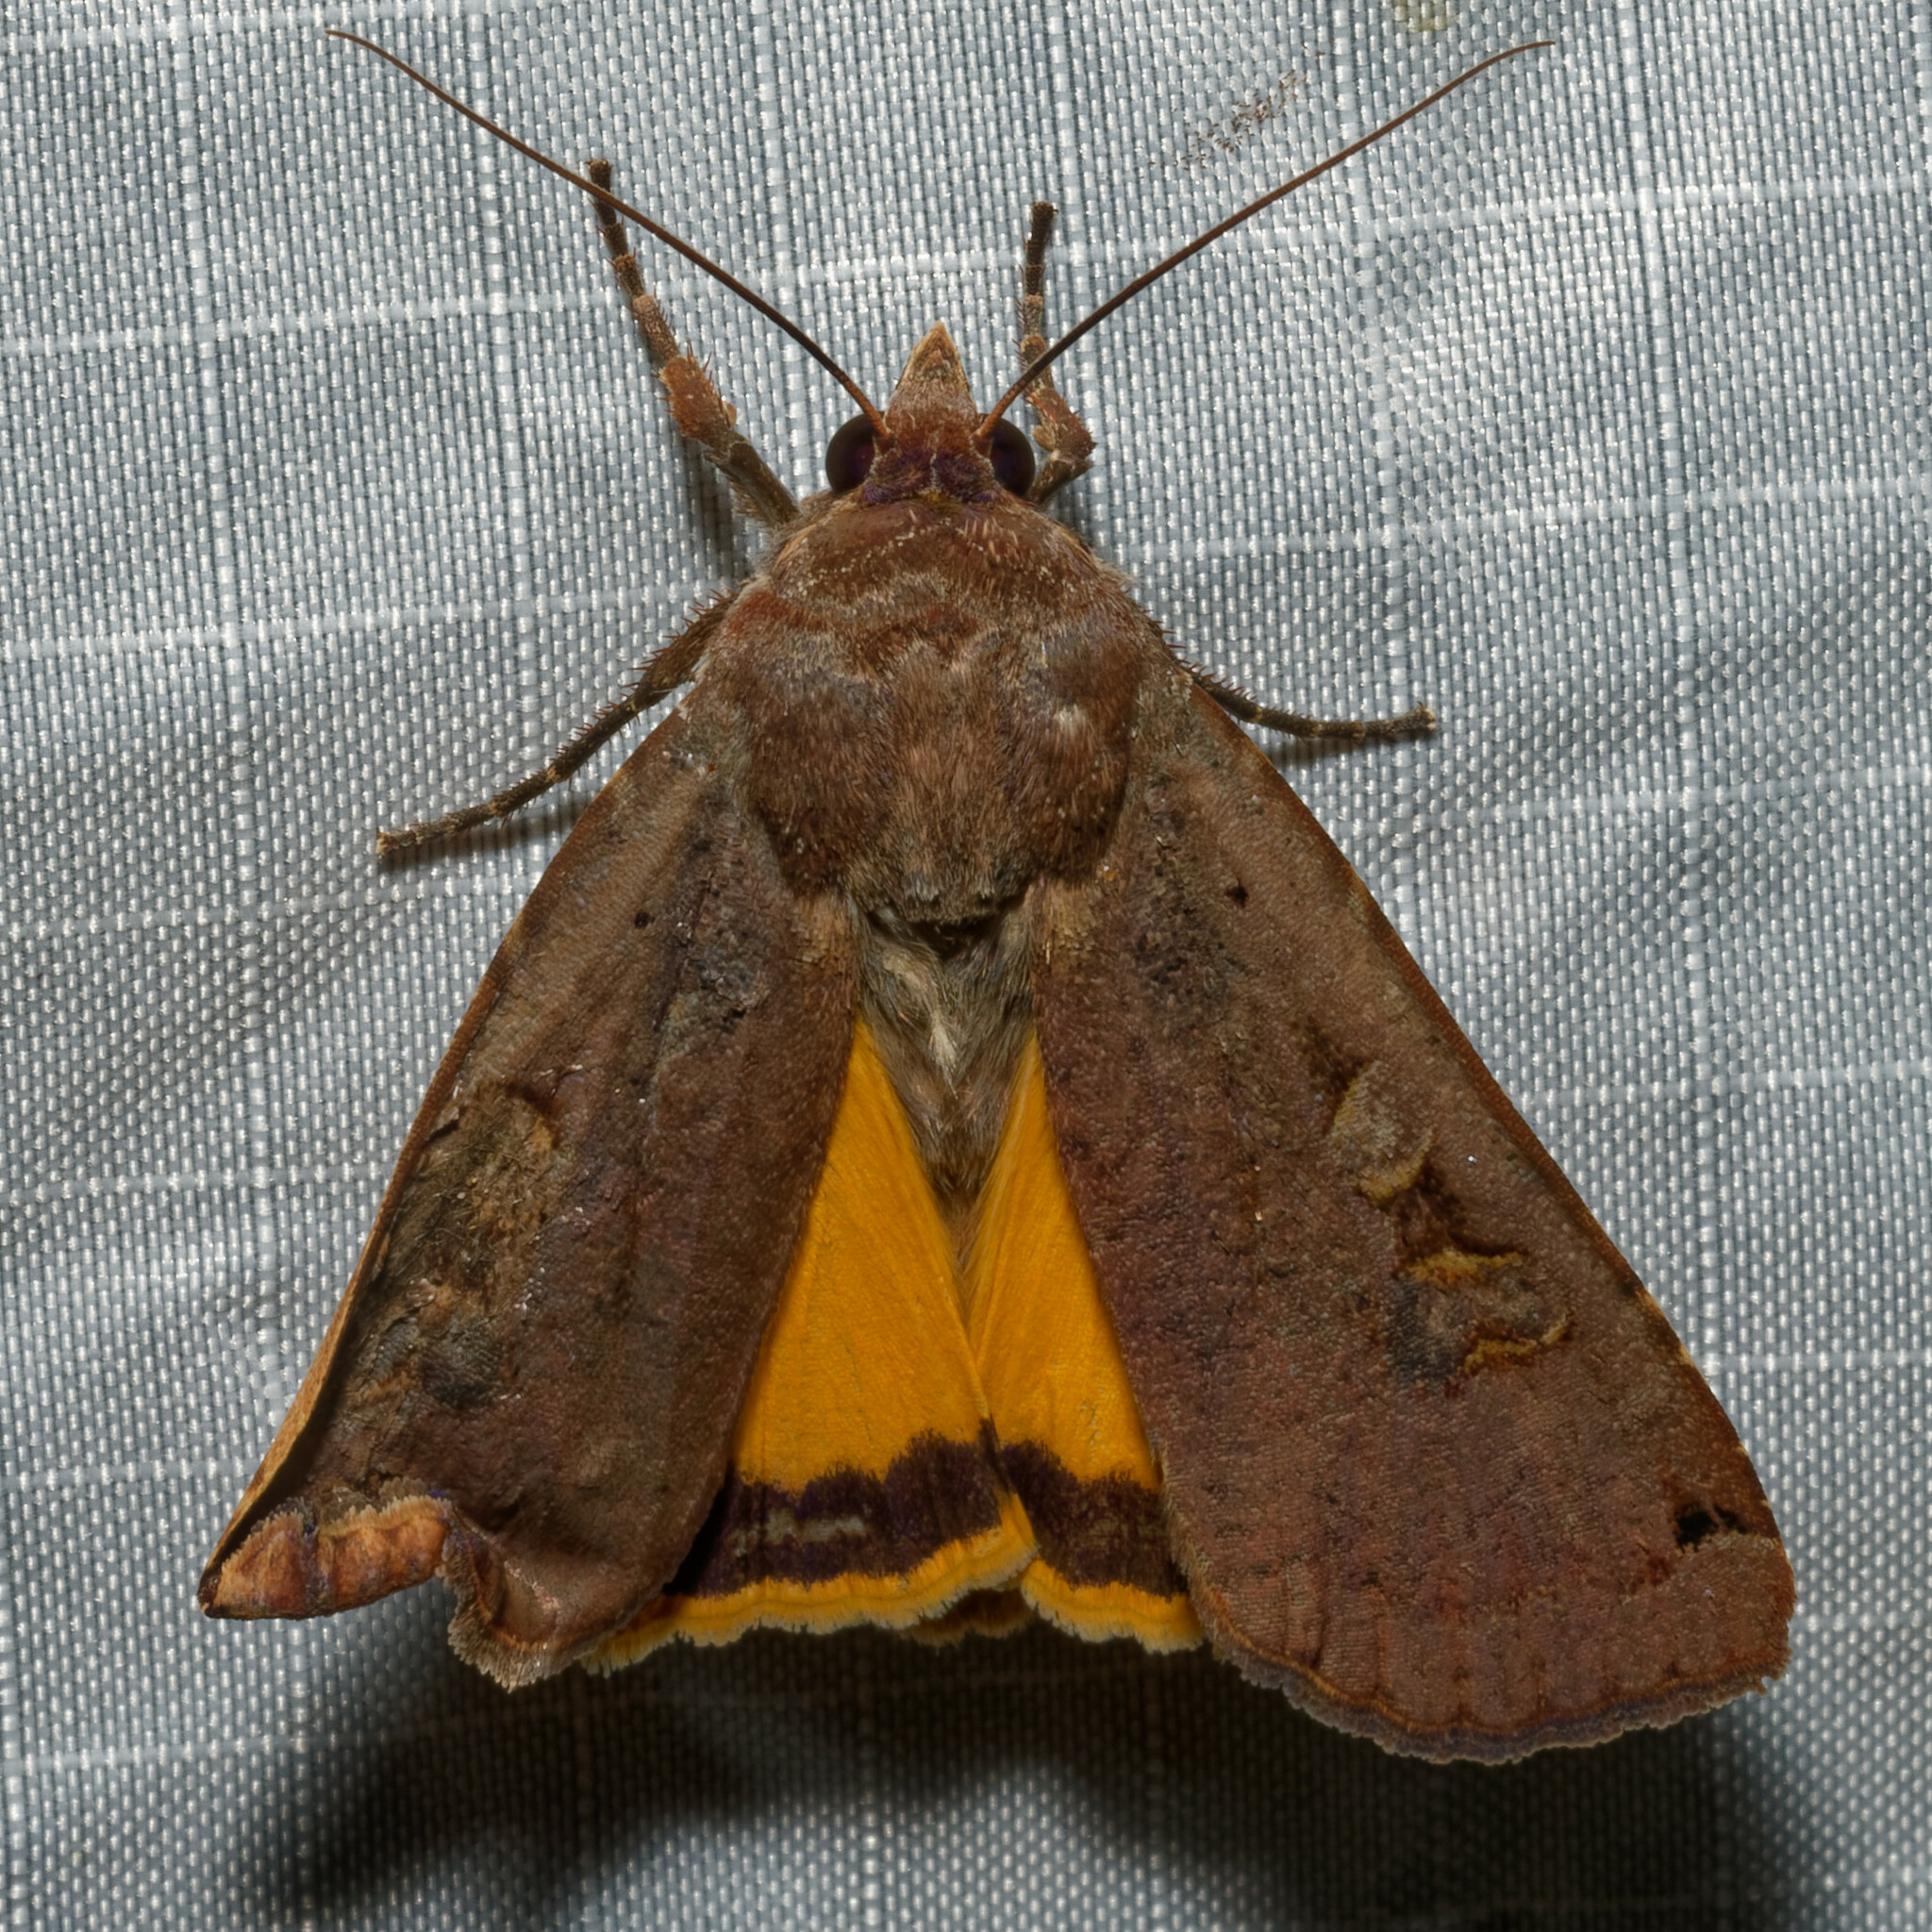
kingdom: Animalia
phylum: Arthropoda
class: Insecta
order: Lepidoptera
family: Noctuidae
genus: Noctua
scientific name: Noctua pronuba
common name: Large yellow underwing
